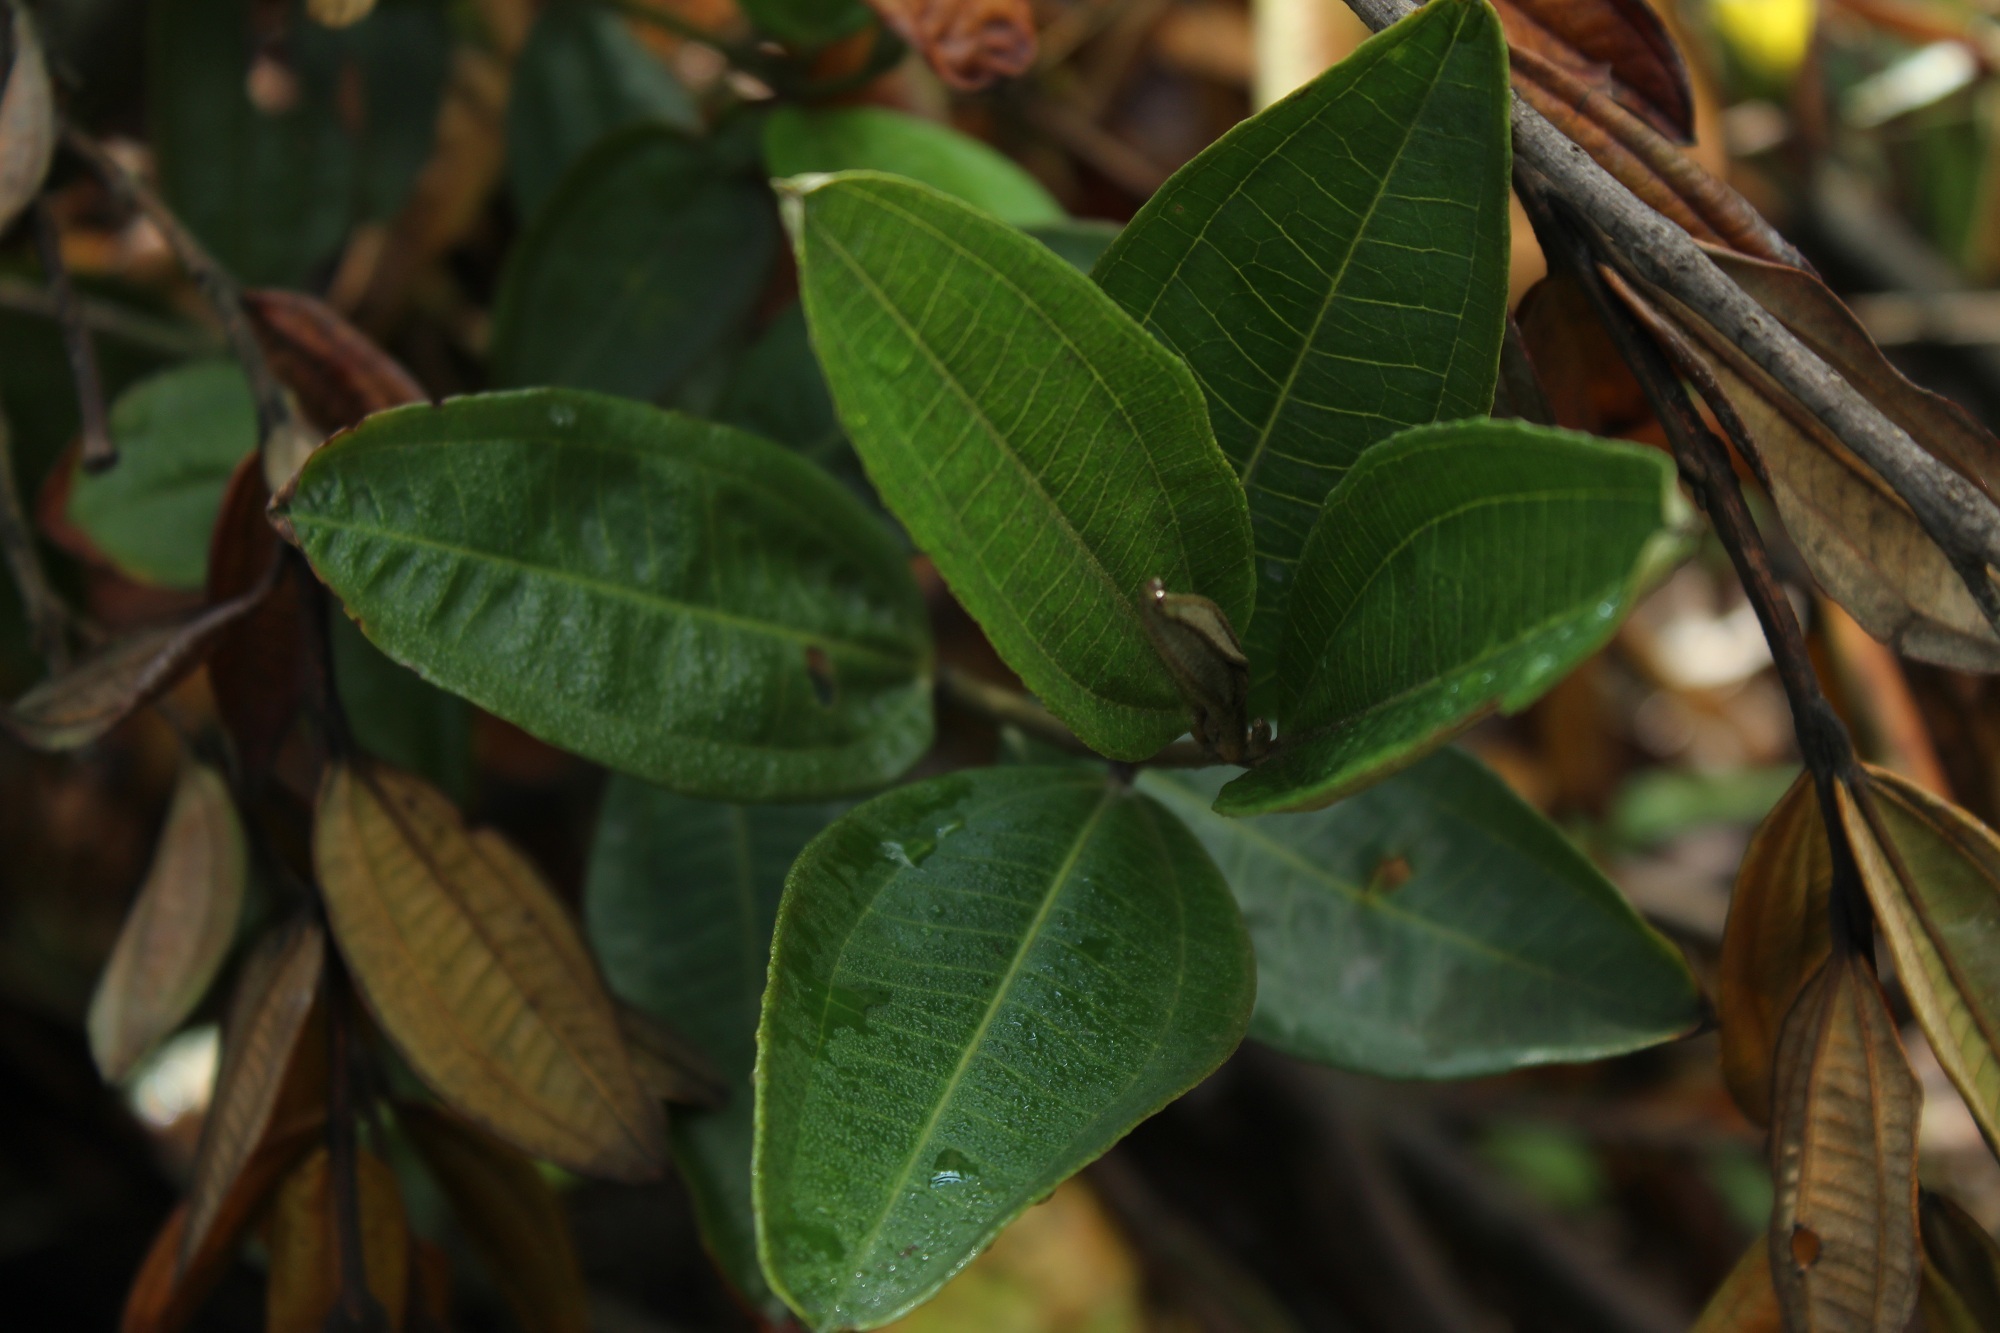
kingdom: Plantae
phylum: Tracheophyta
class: Magnoliopsida
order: Myrtales
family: Melastomataceae
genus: Miconia
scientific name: Miconia squamulosa
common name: Squamulose maya
